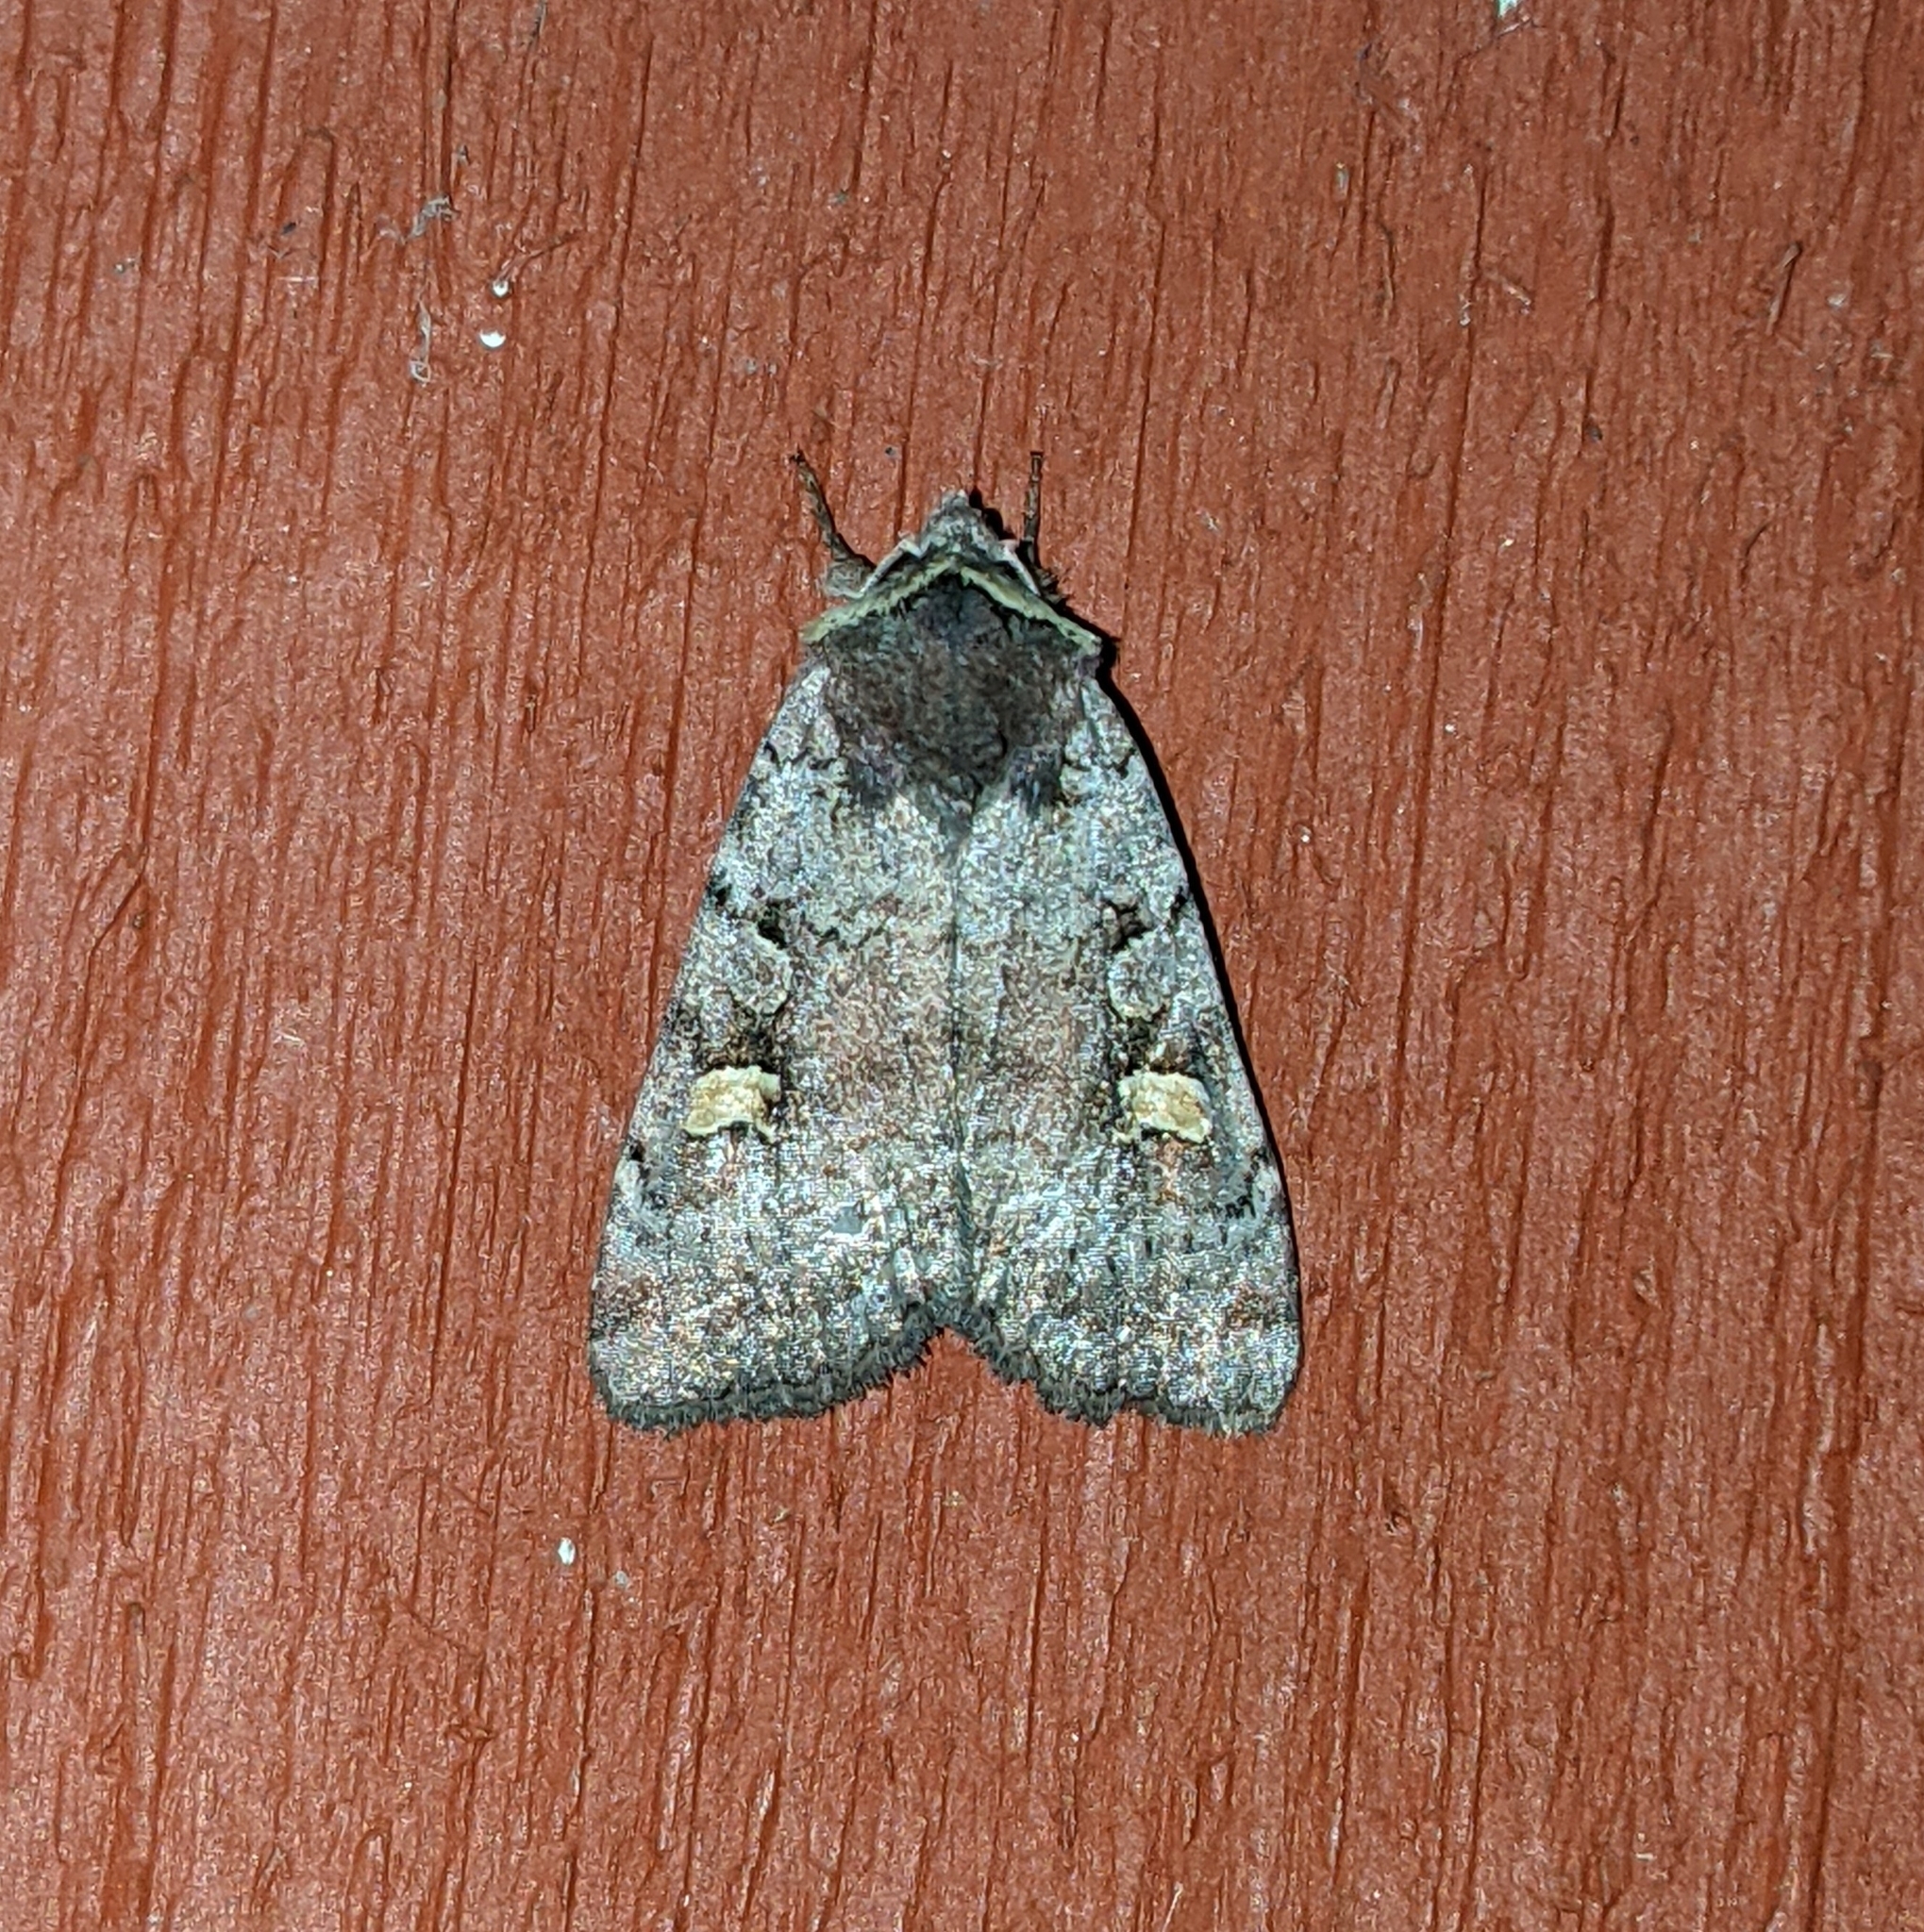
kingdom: Animalia
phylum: Arthropoda
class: Insecta
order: Lepidoptera
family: Noctuidae
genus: Adelphagrotis
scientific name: Adelphagrotis stellaris
